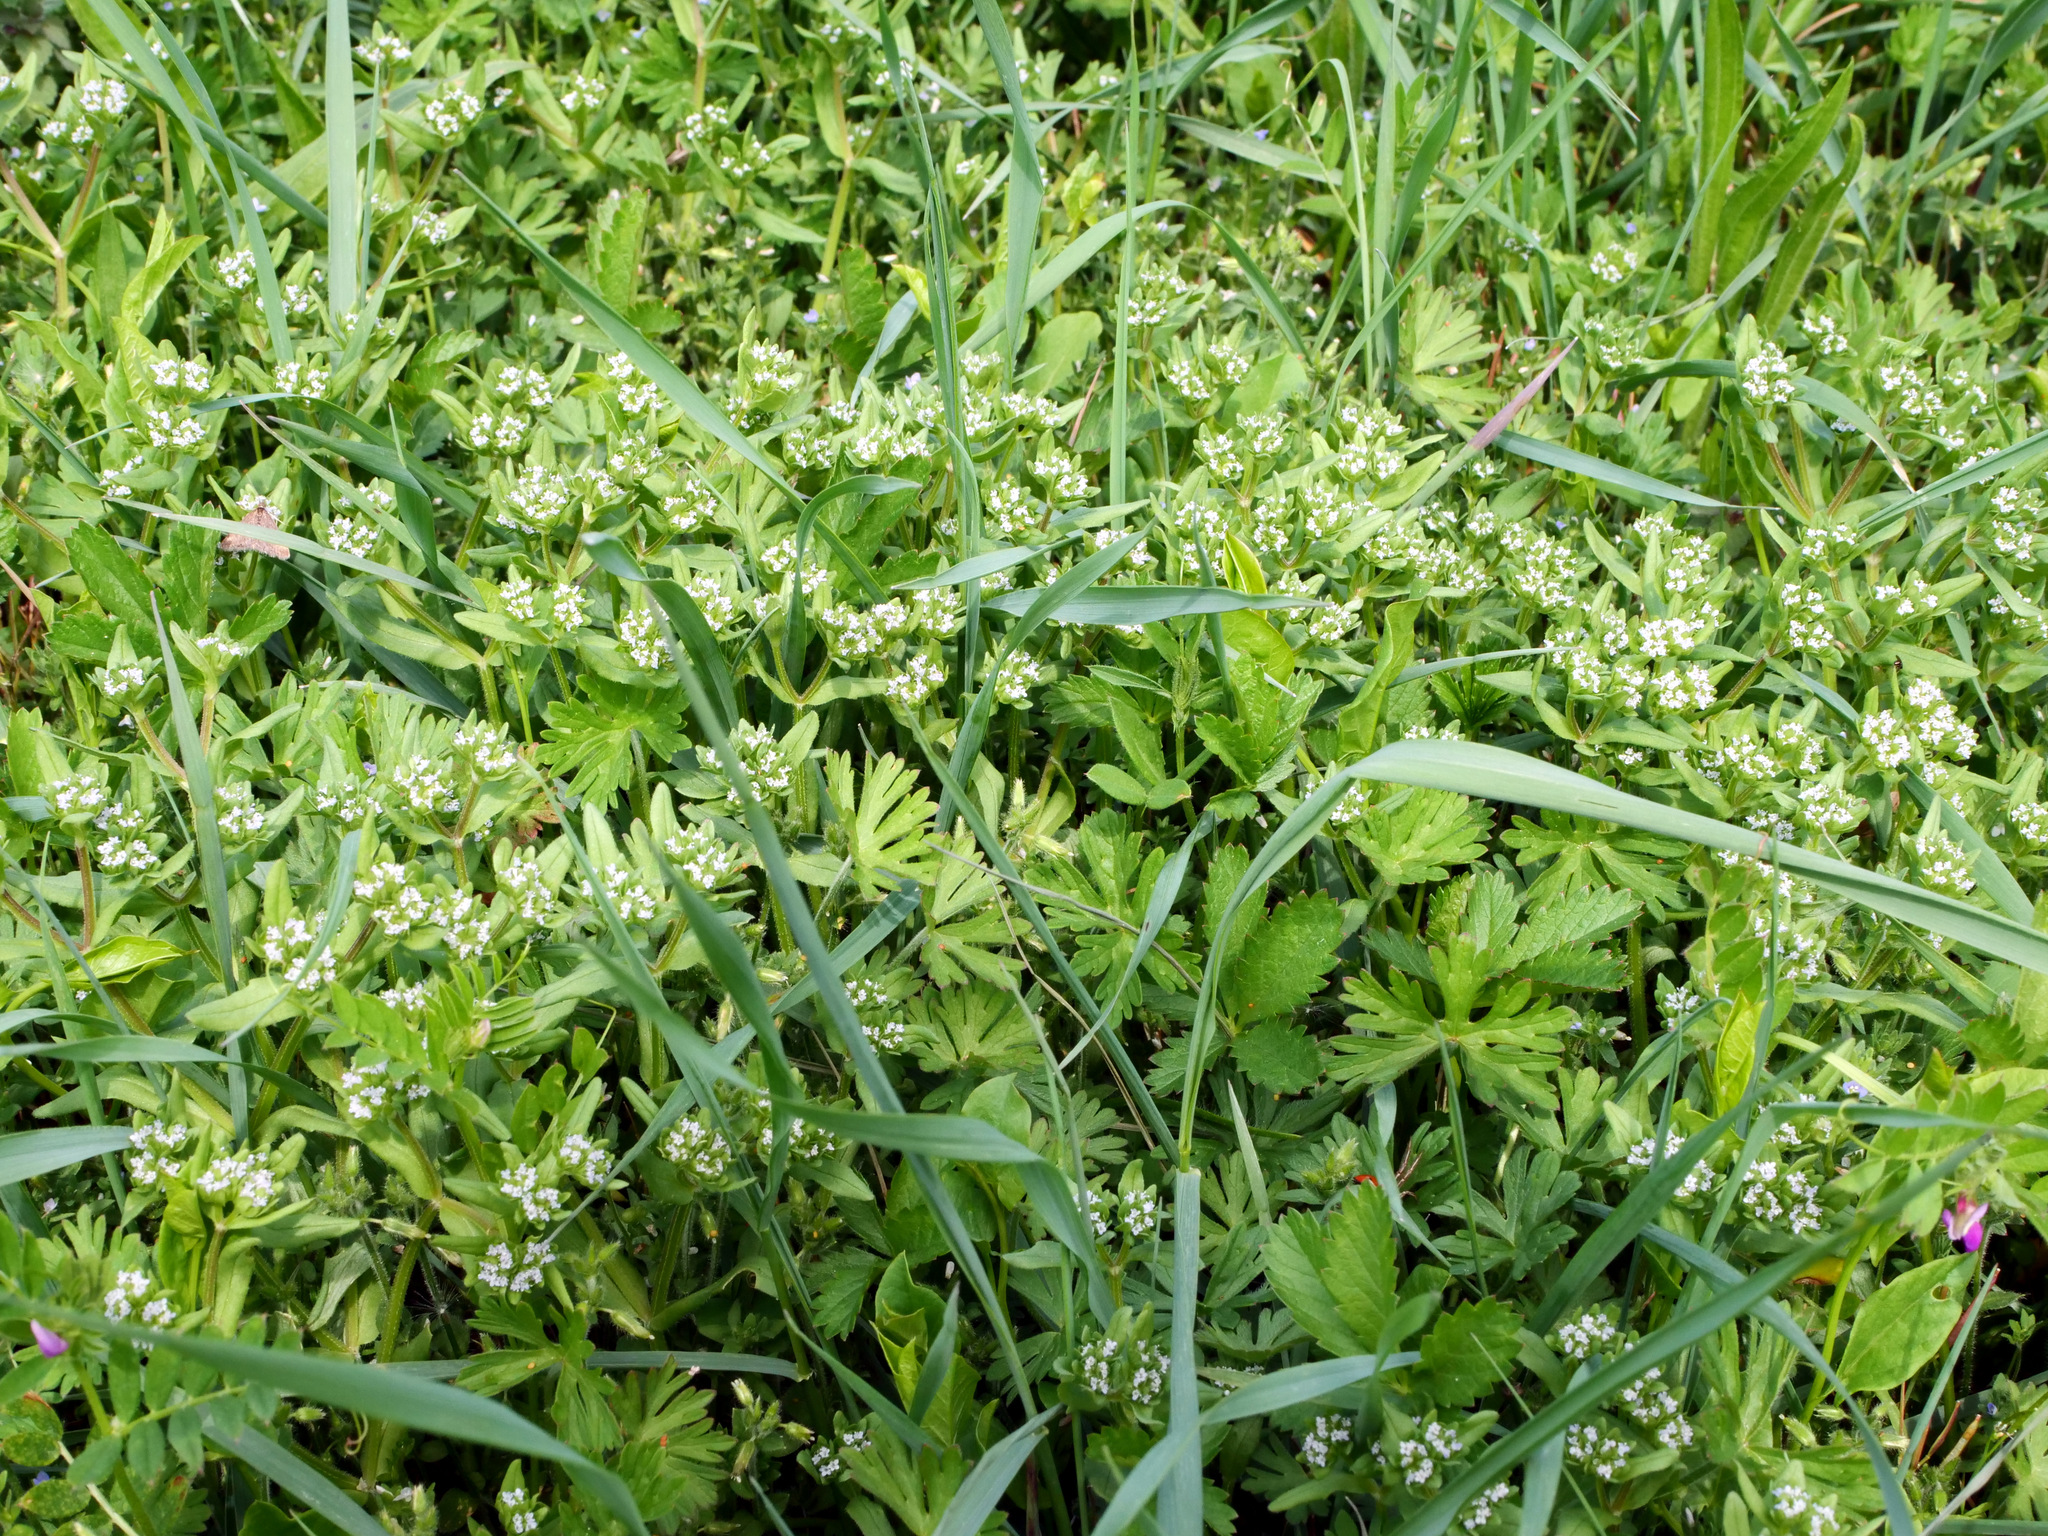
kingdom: Plantae
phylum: Tracheophyta
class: Magnoliopsida
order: Dipsacales
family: Caprifoliaceae
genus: Valerianella
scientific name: Valerianella
